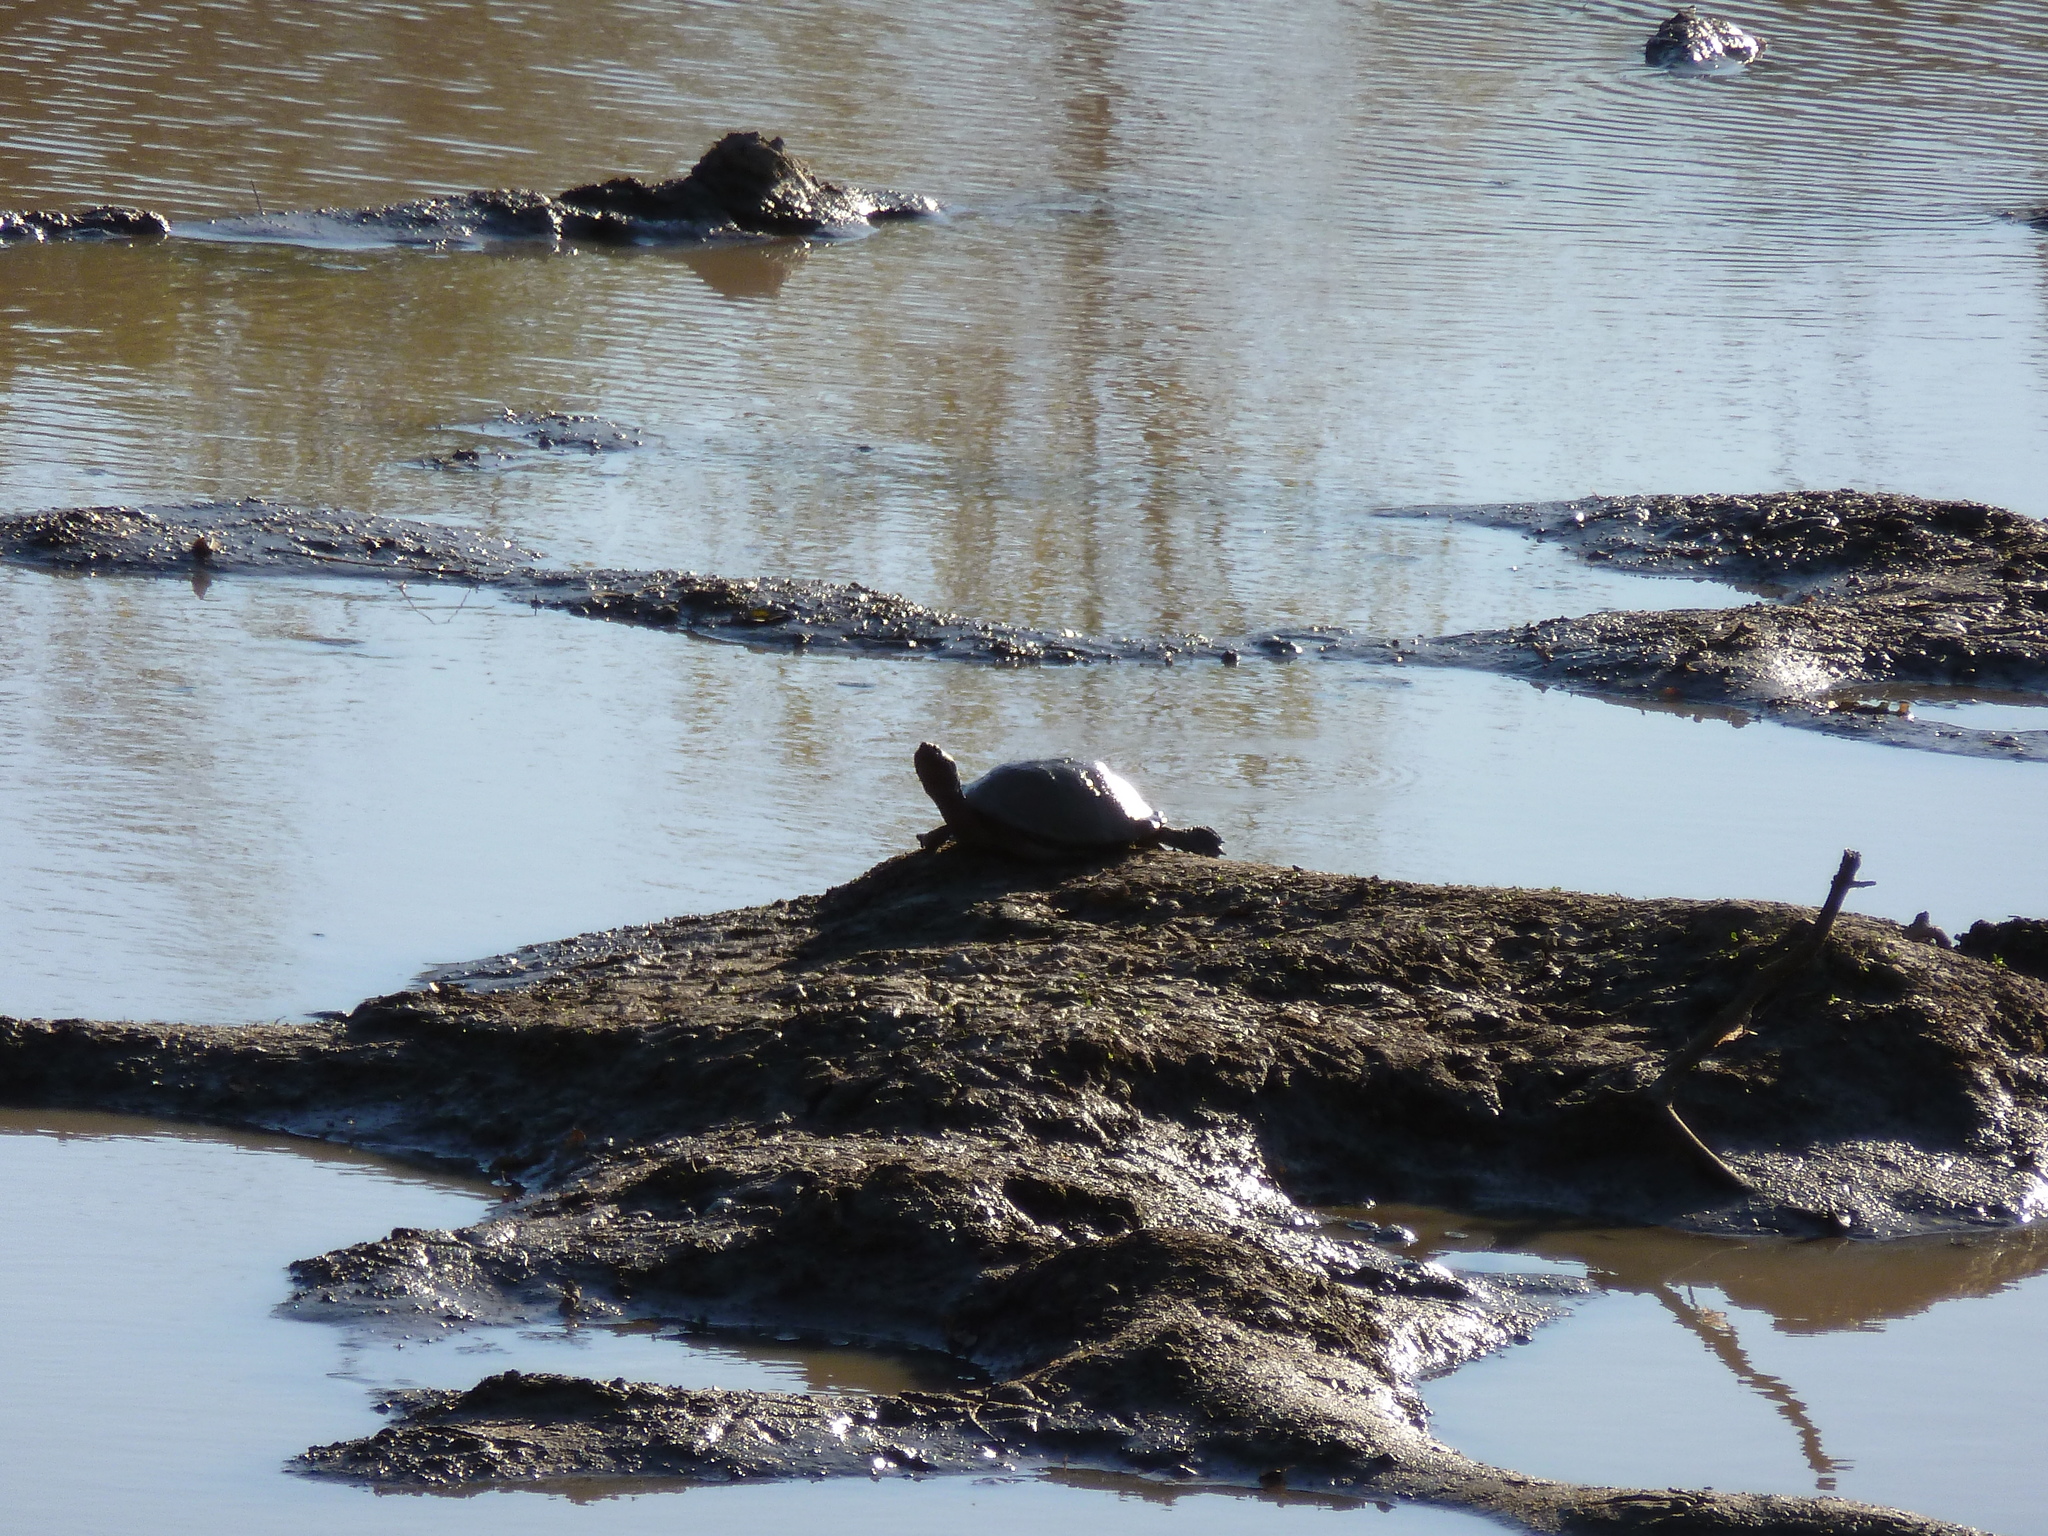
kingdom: Animalia
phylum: Chordata
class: Testudines
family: Pelomedusidae
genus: Pelusios
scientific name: Pelusios sinuatus
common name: Serrated hinged terrapin
